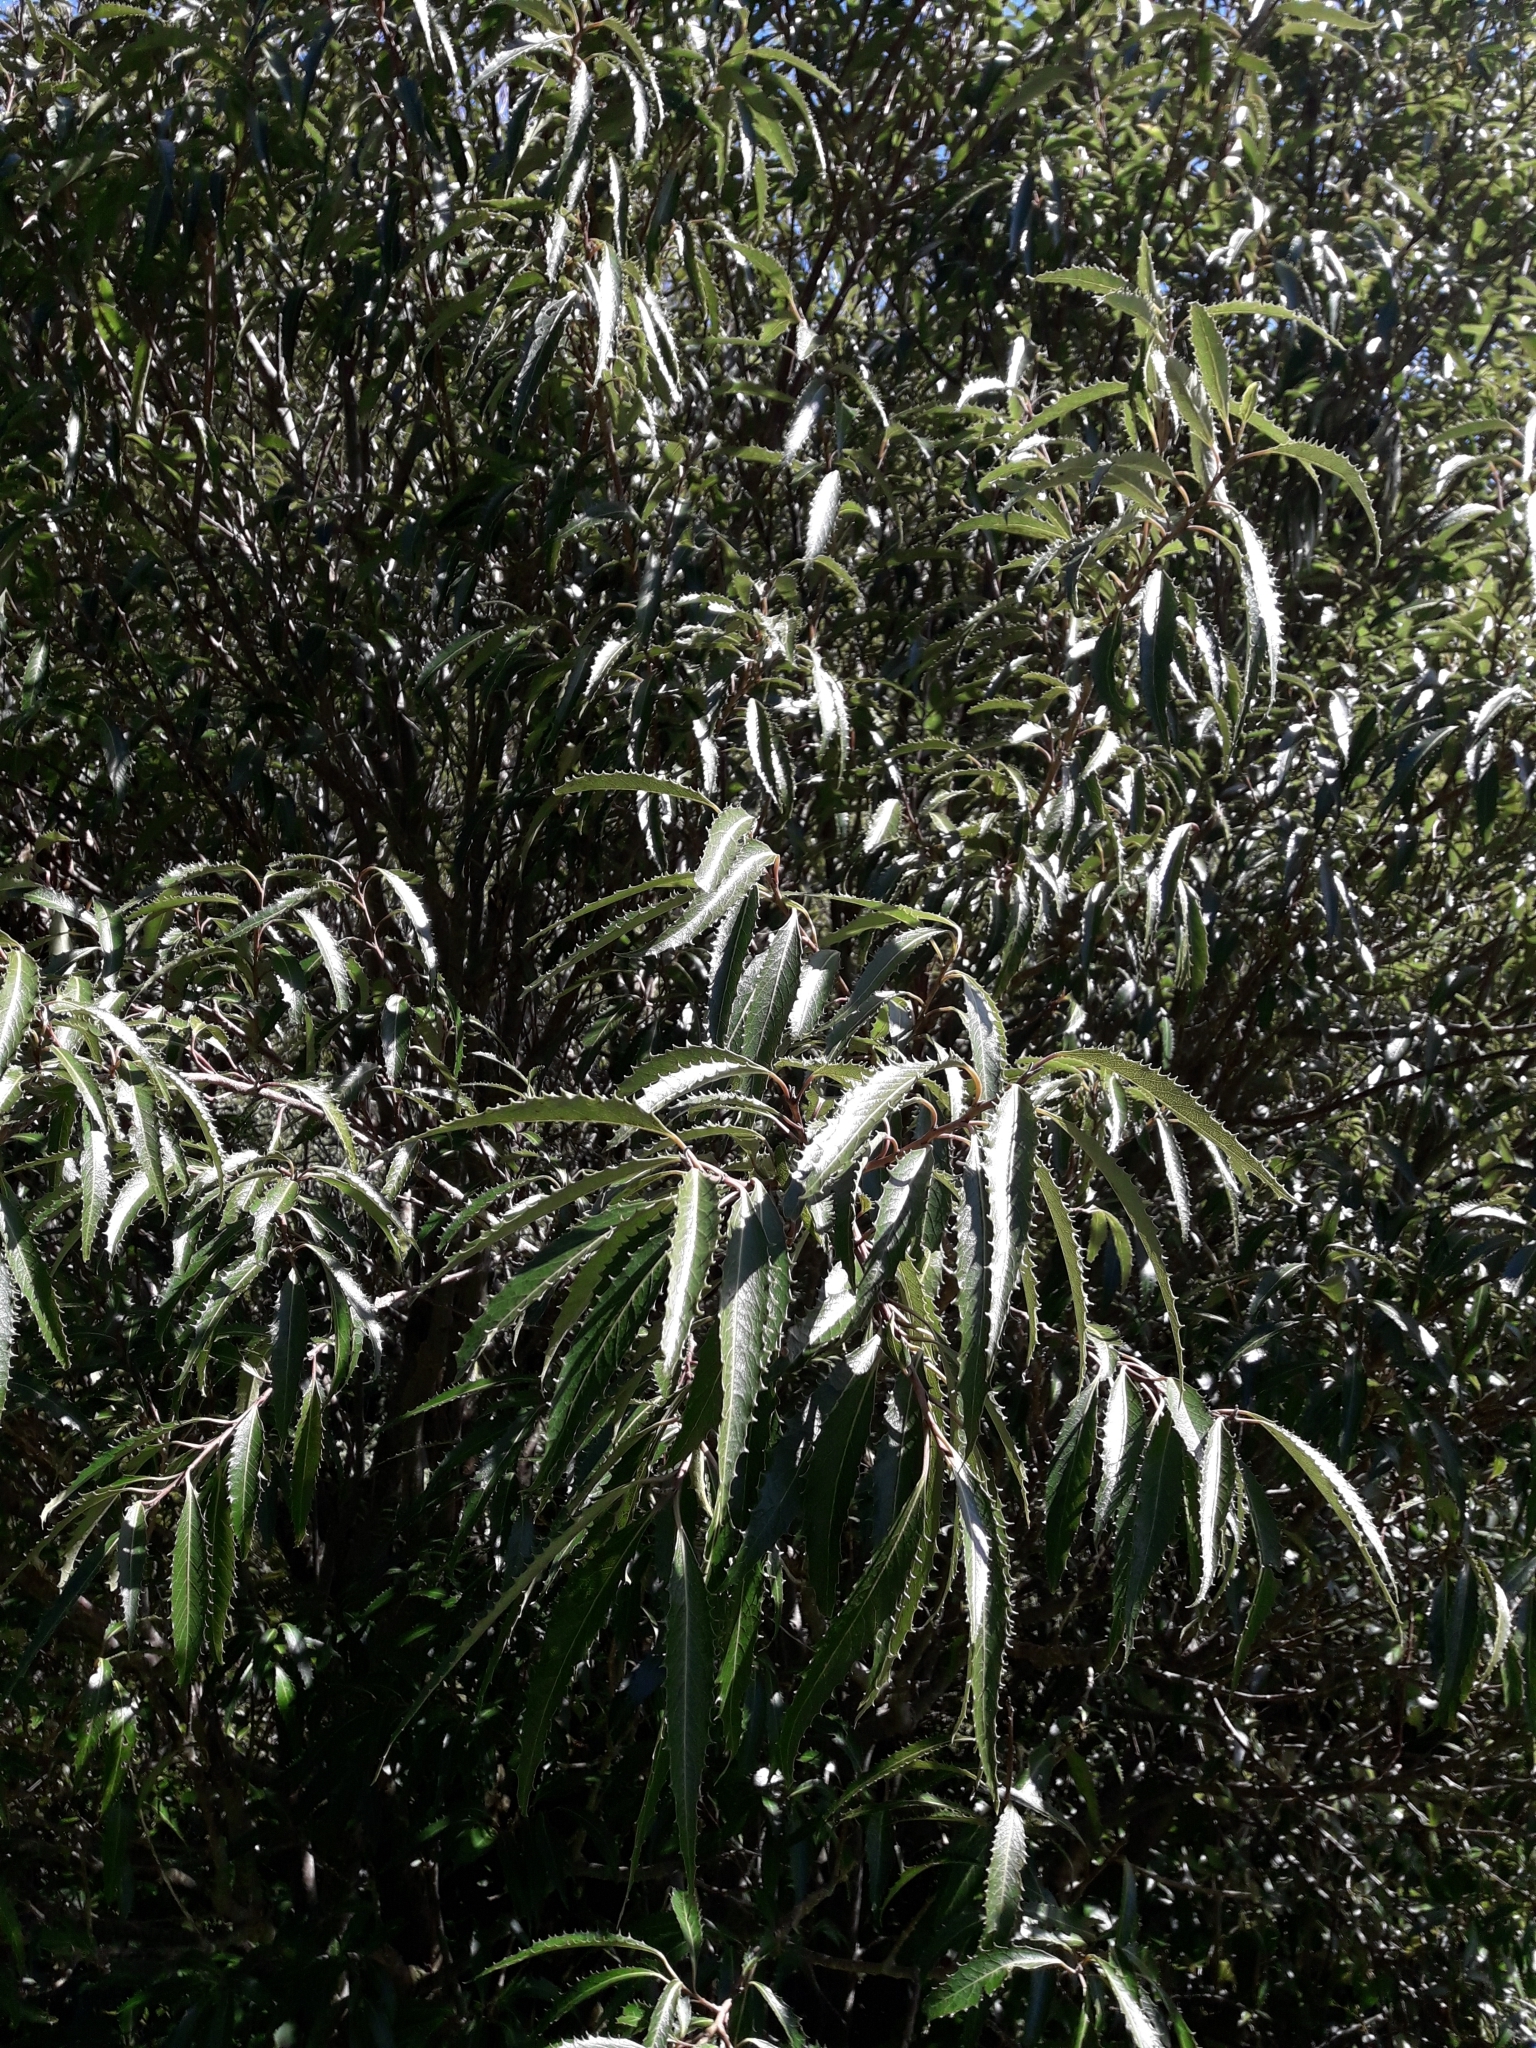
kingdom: Plantae
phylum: Tracheophyta
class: Magnoliopsida
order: Malpighiales
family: Violaceae
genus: Melicytus
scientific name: Melicytus lanceolatus
